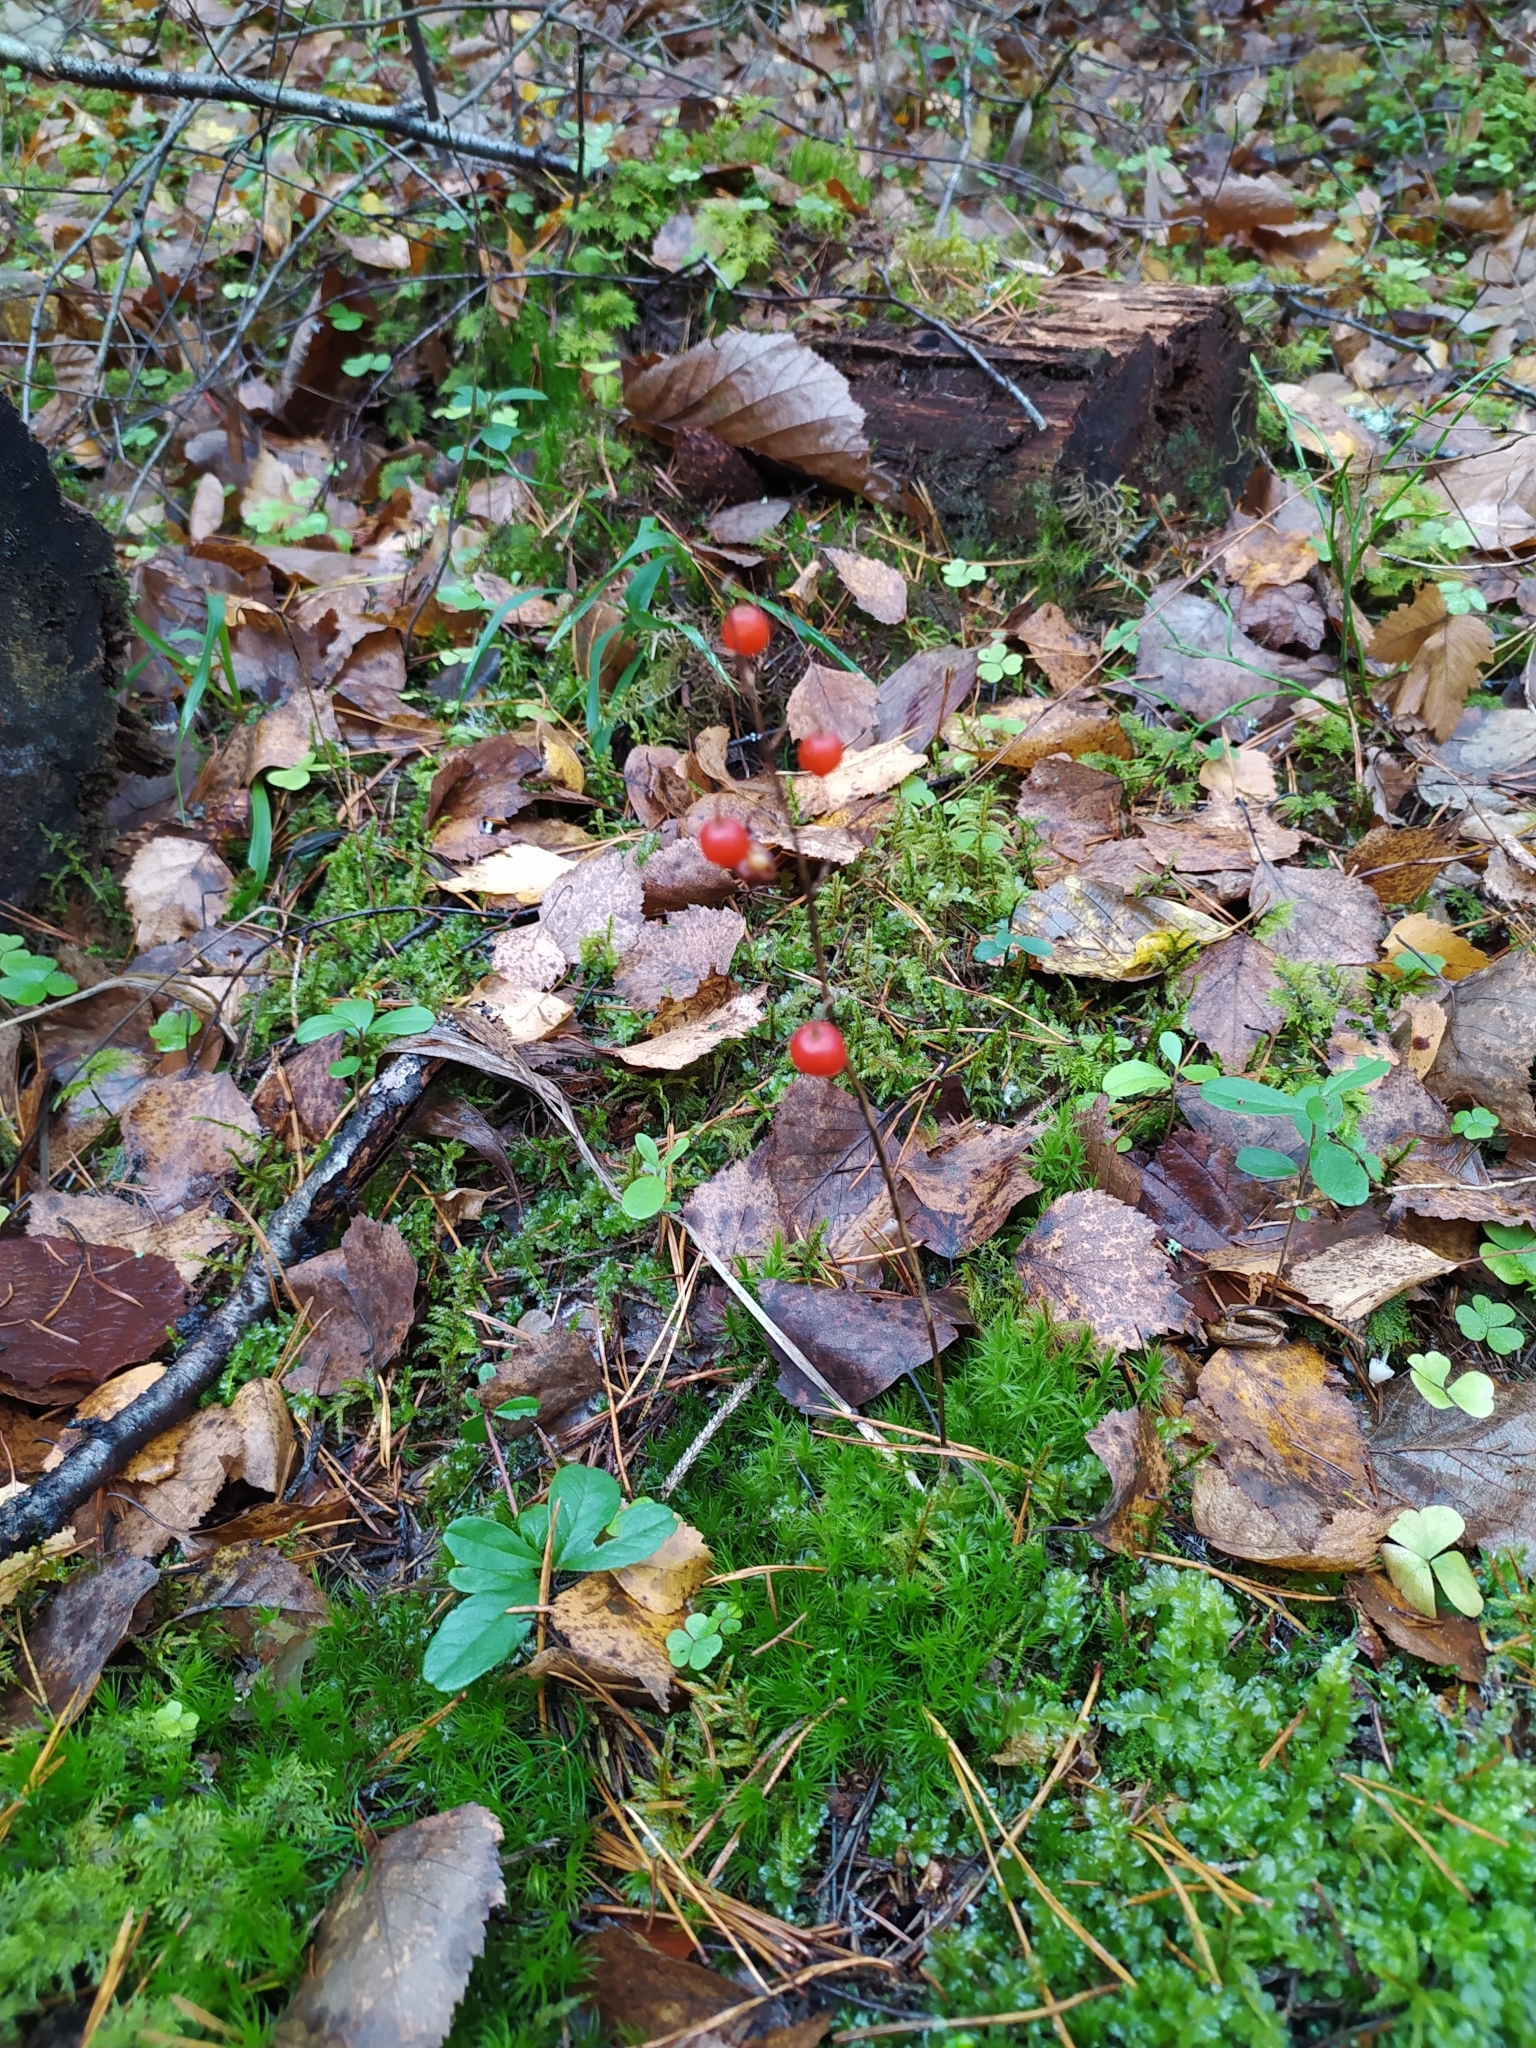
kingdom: Plantae
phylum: Tracheophyta
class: Liliopsida
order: Asparagales
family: Asparagaceae
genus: Convallaria
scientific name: Convallaria majalis
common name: Lily-of-the-valley
